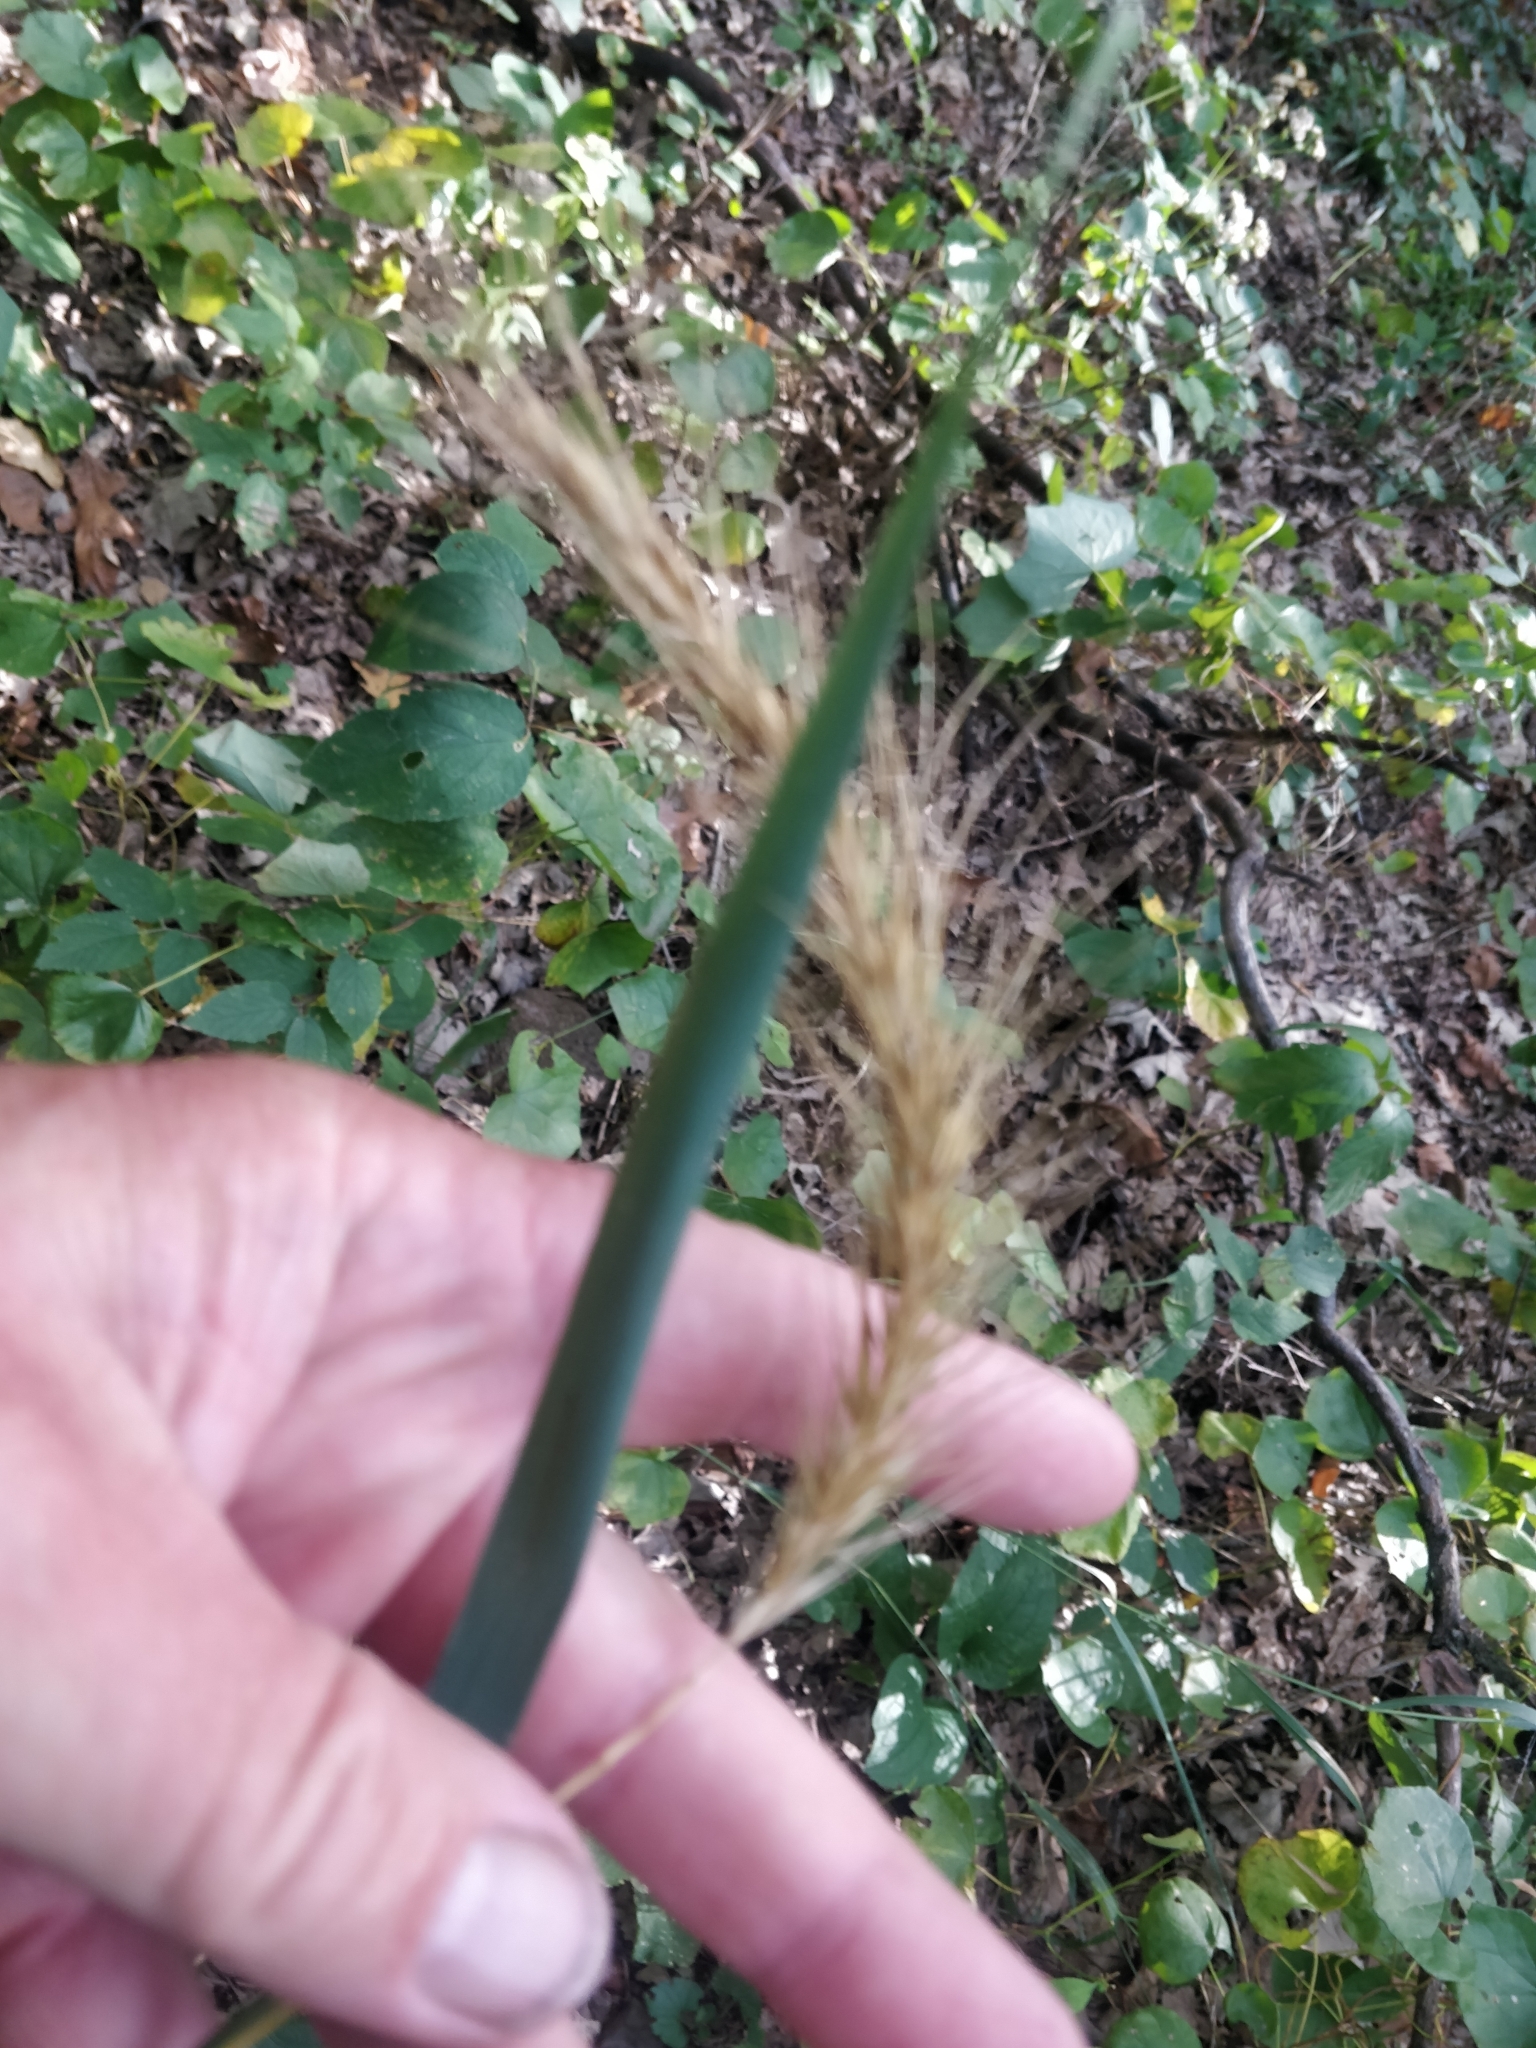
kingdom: Plantae
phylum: Tracheophyta
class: Liliopsida
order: Poales
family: Poaceae
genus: Elymus
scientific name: Elymus canadensis
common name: Canada wild rye
